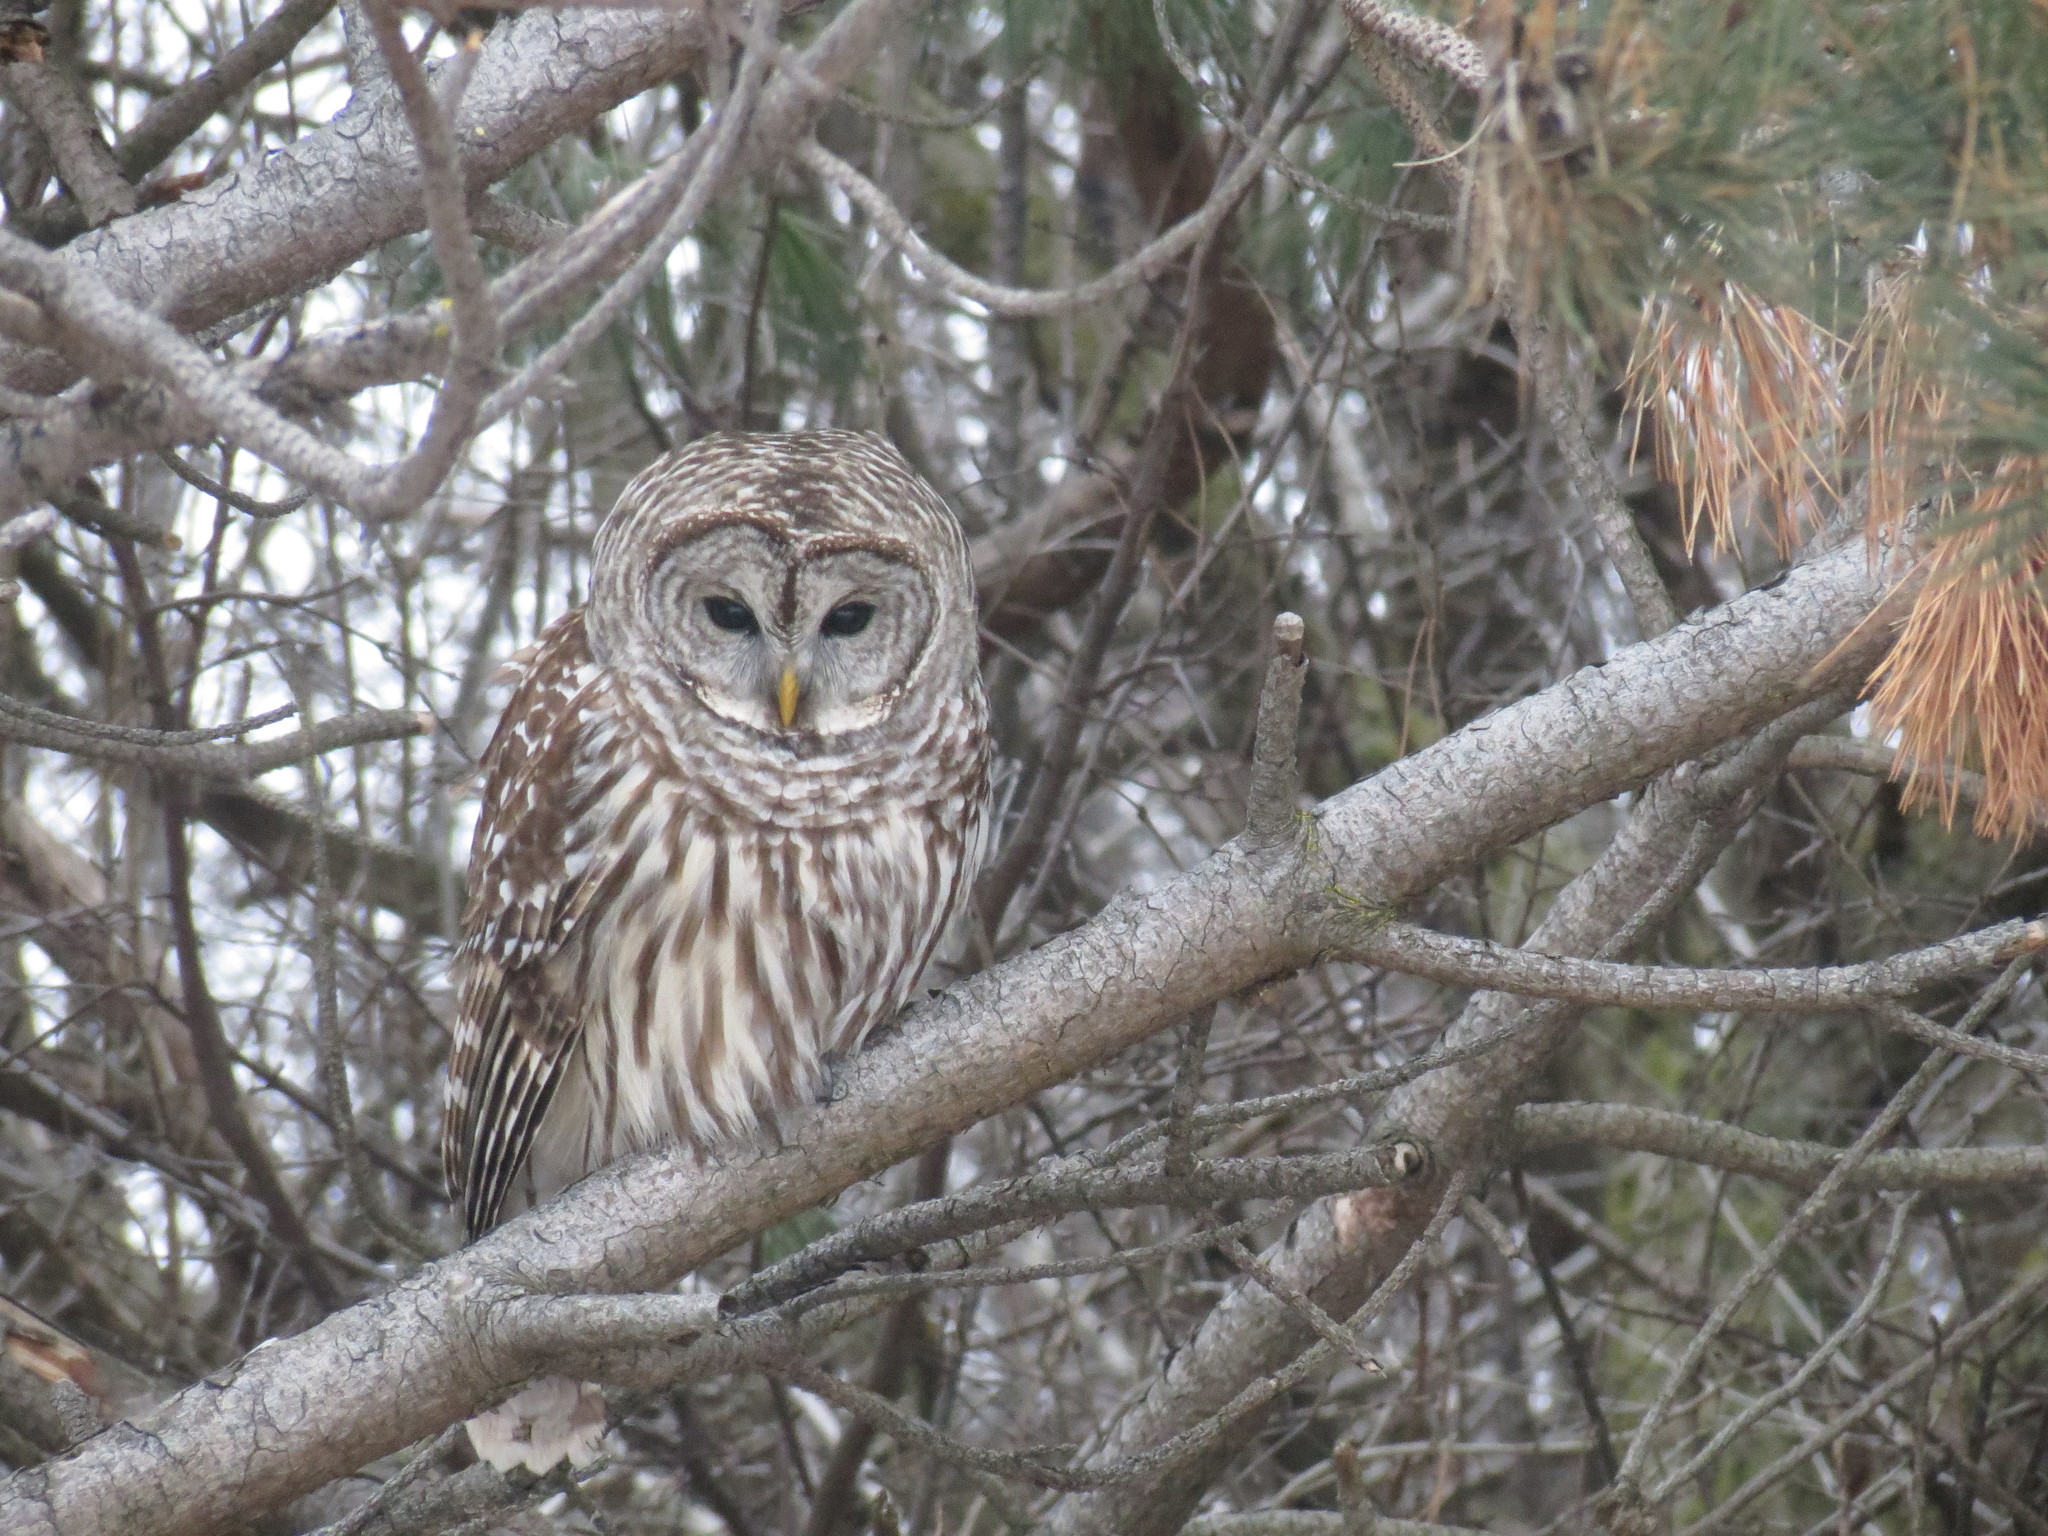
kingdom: Animalia
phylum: Chordata
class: Aves
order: Strigiformes
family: Strigidae
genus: Strix
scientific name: Strix varia
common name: Barred owl
